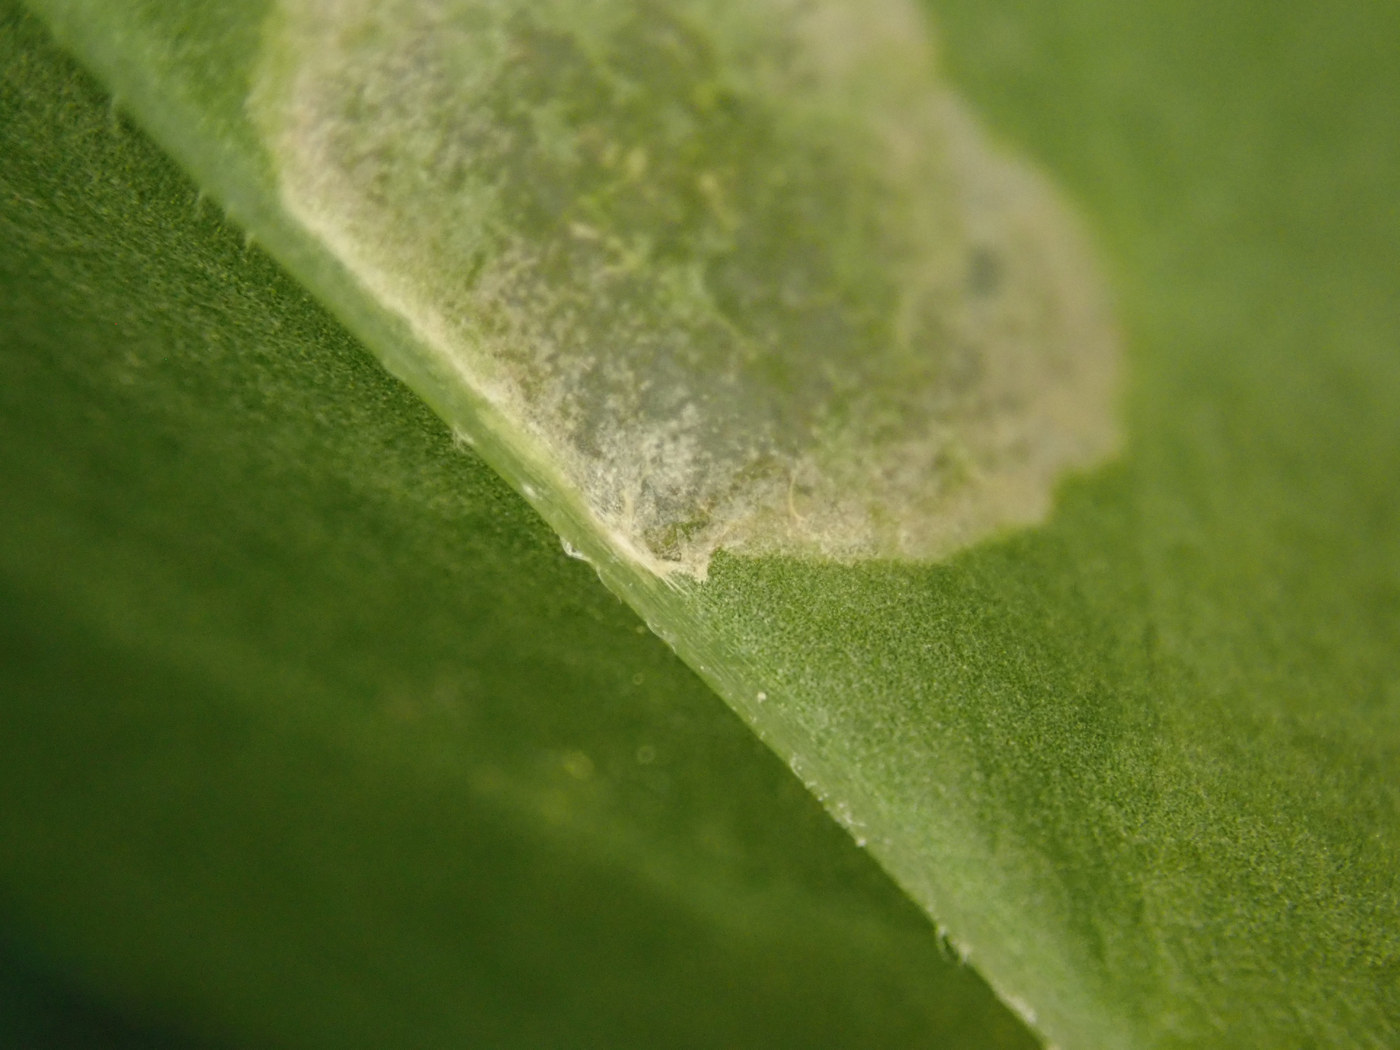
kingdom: Animalia
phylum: Arthropoda
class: Insecta
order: Diptera
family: Anthomyiidae
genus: Pegomya
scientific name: Pegomya flavifrons
